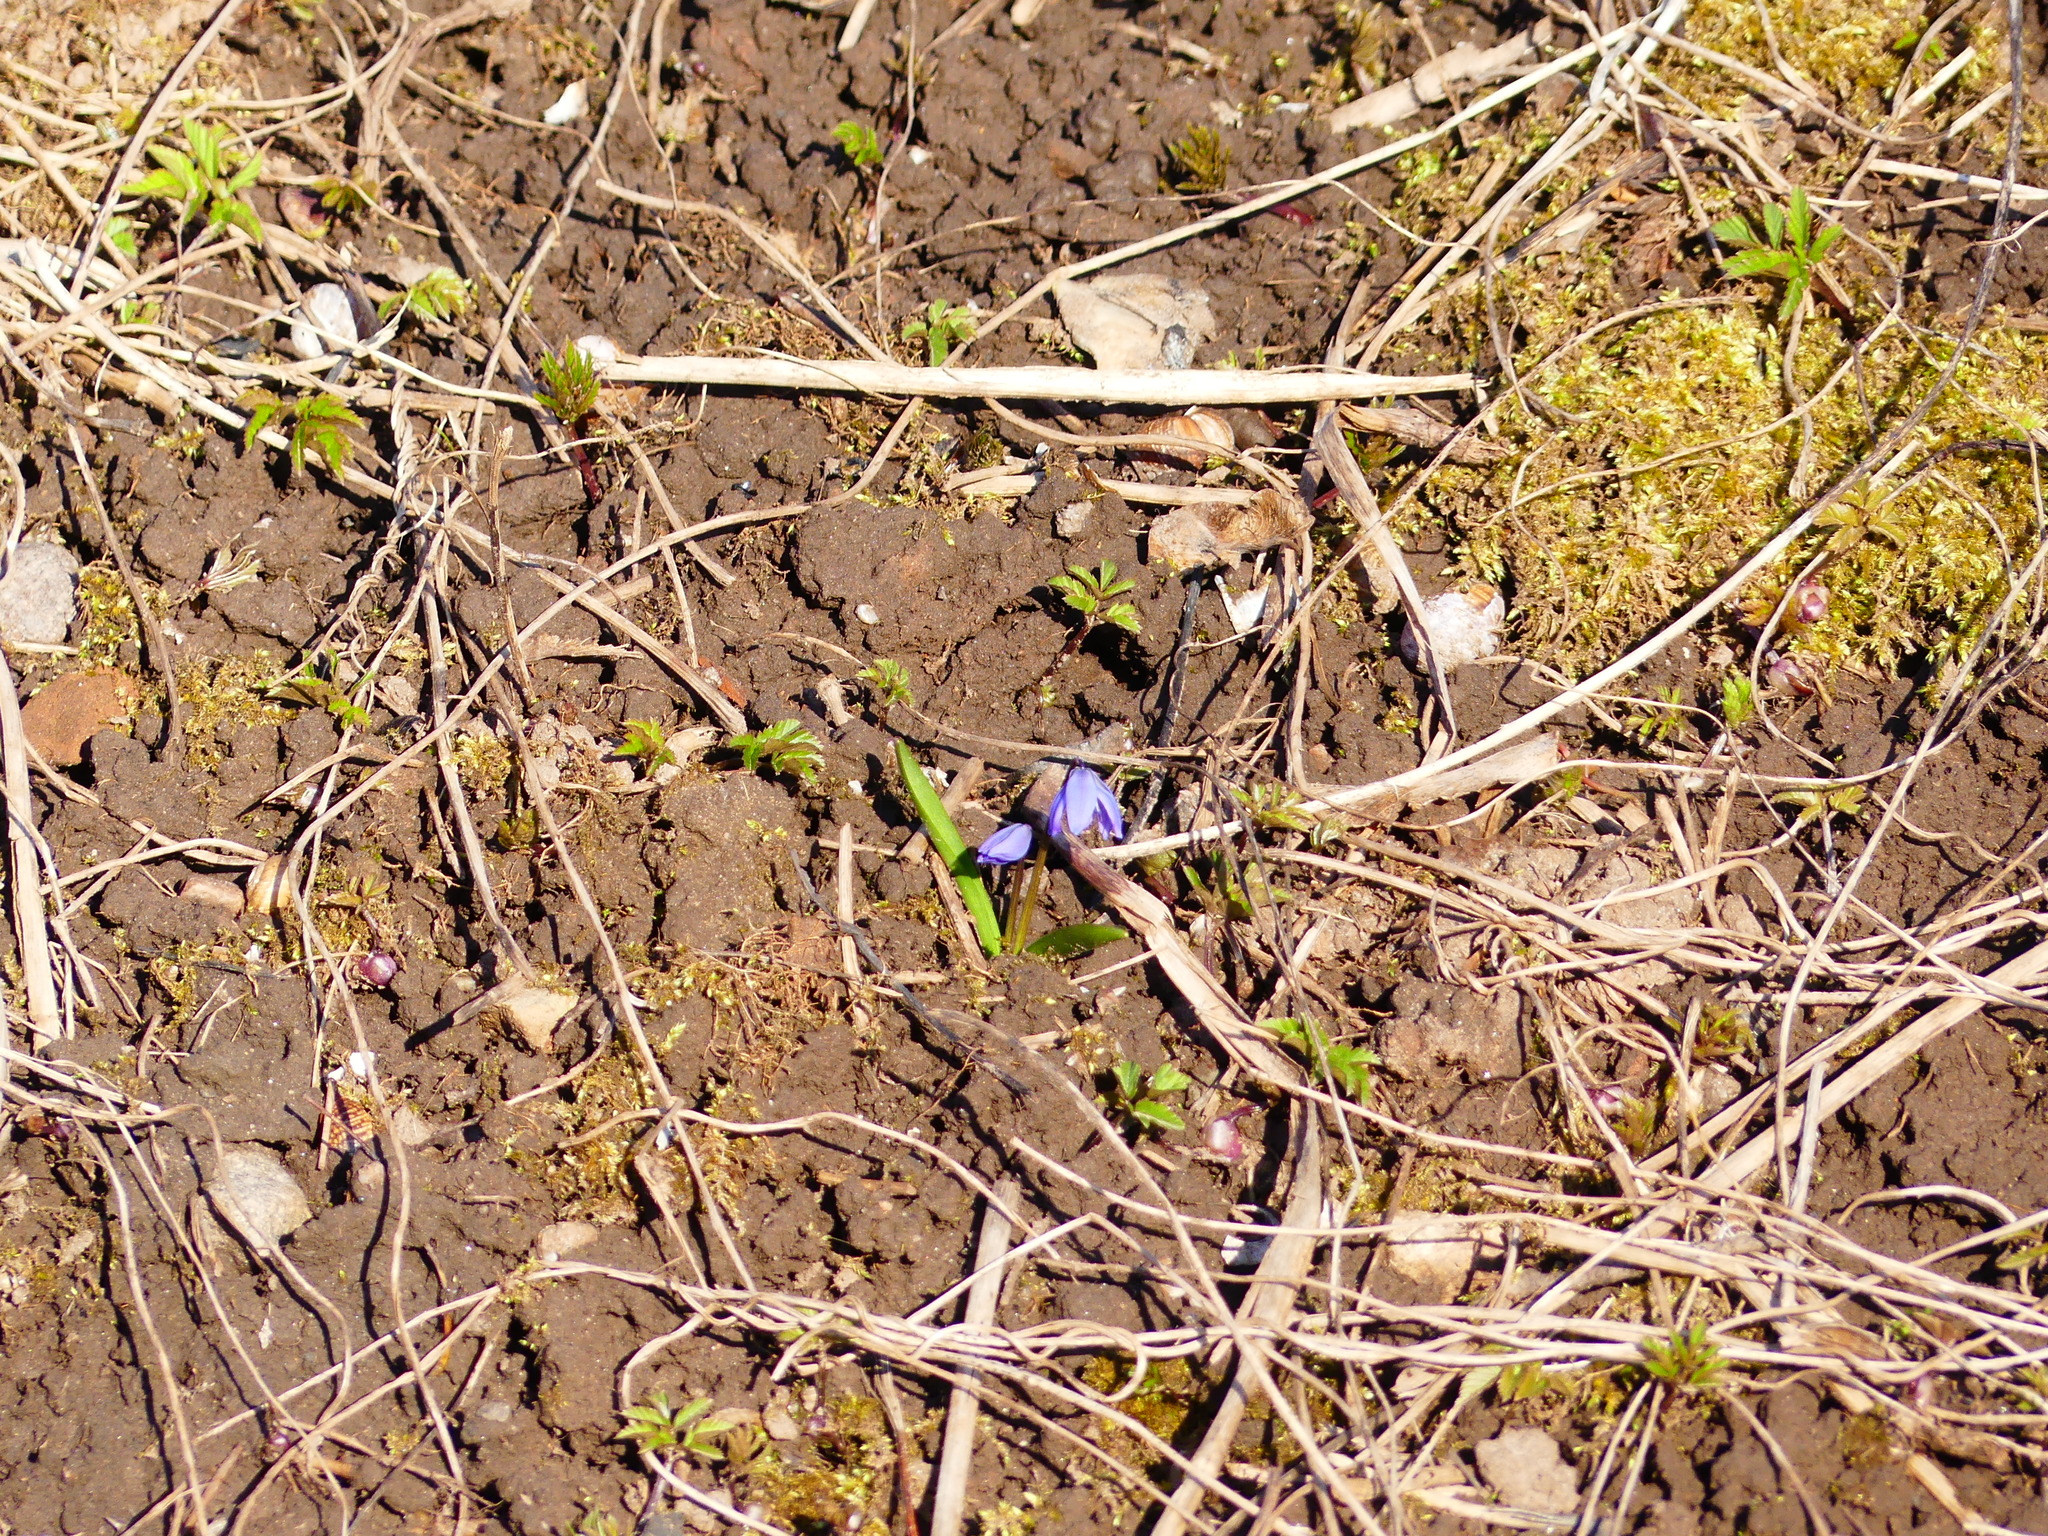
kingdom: Plantae
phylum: Tracheophyta
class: Liliopsida
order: Asparagales
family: Asparagaceae
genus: Scilla
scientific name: Scilla siberica
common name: Siberian squill
